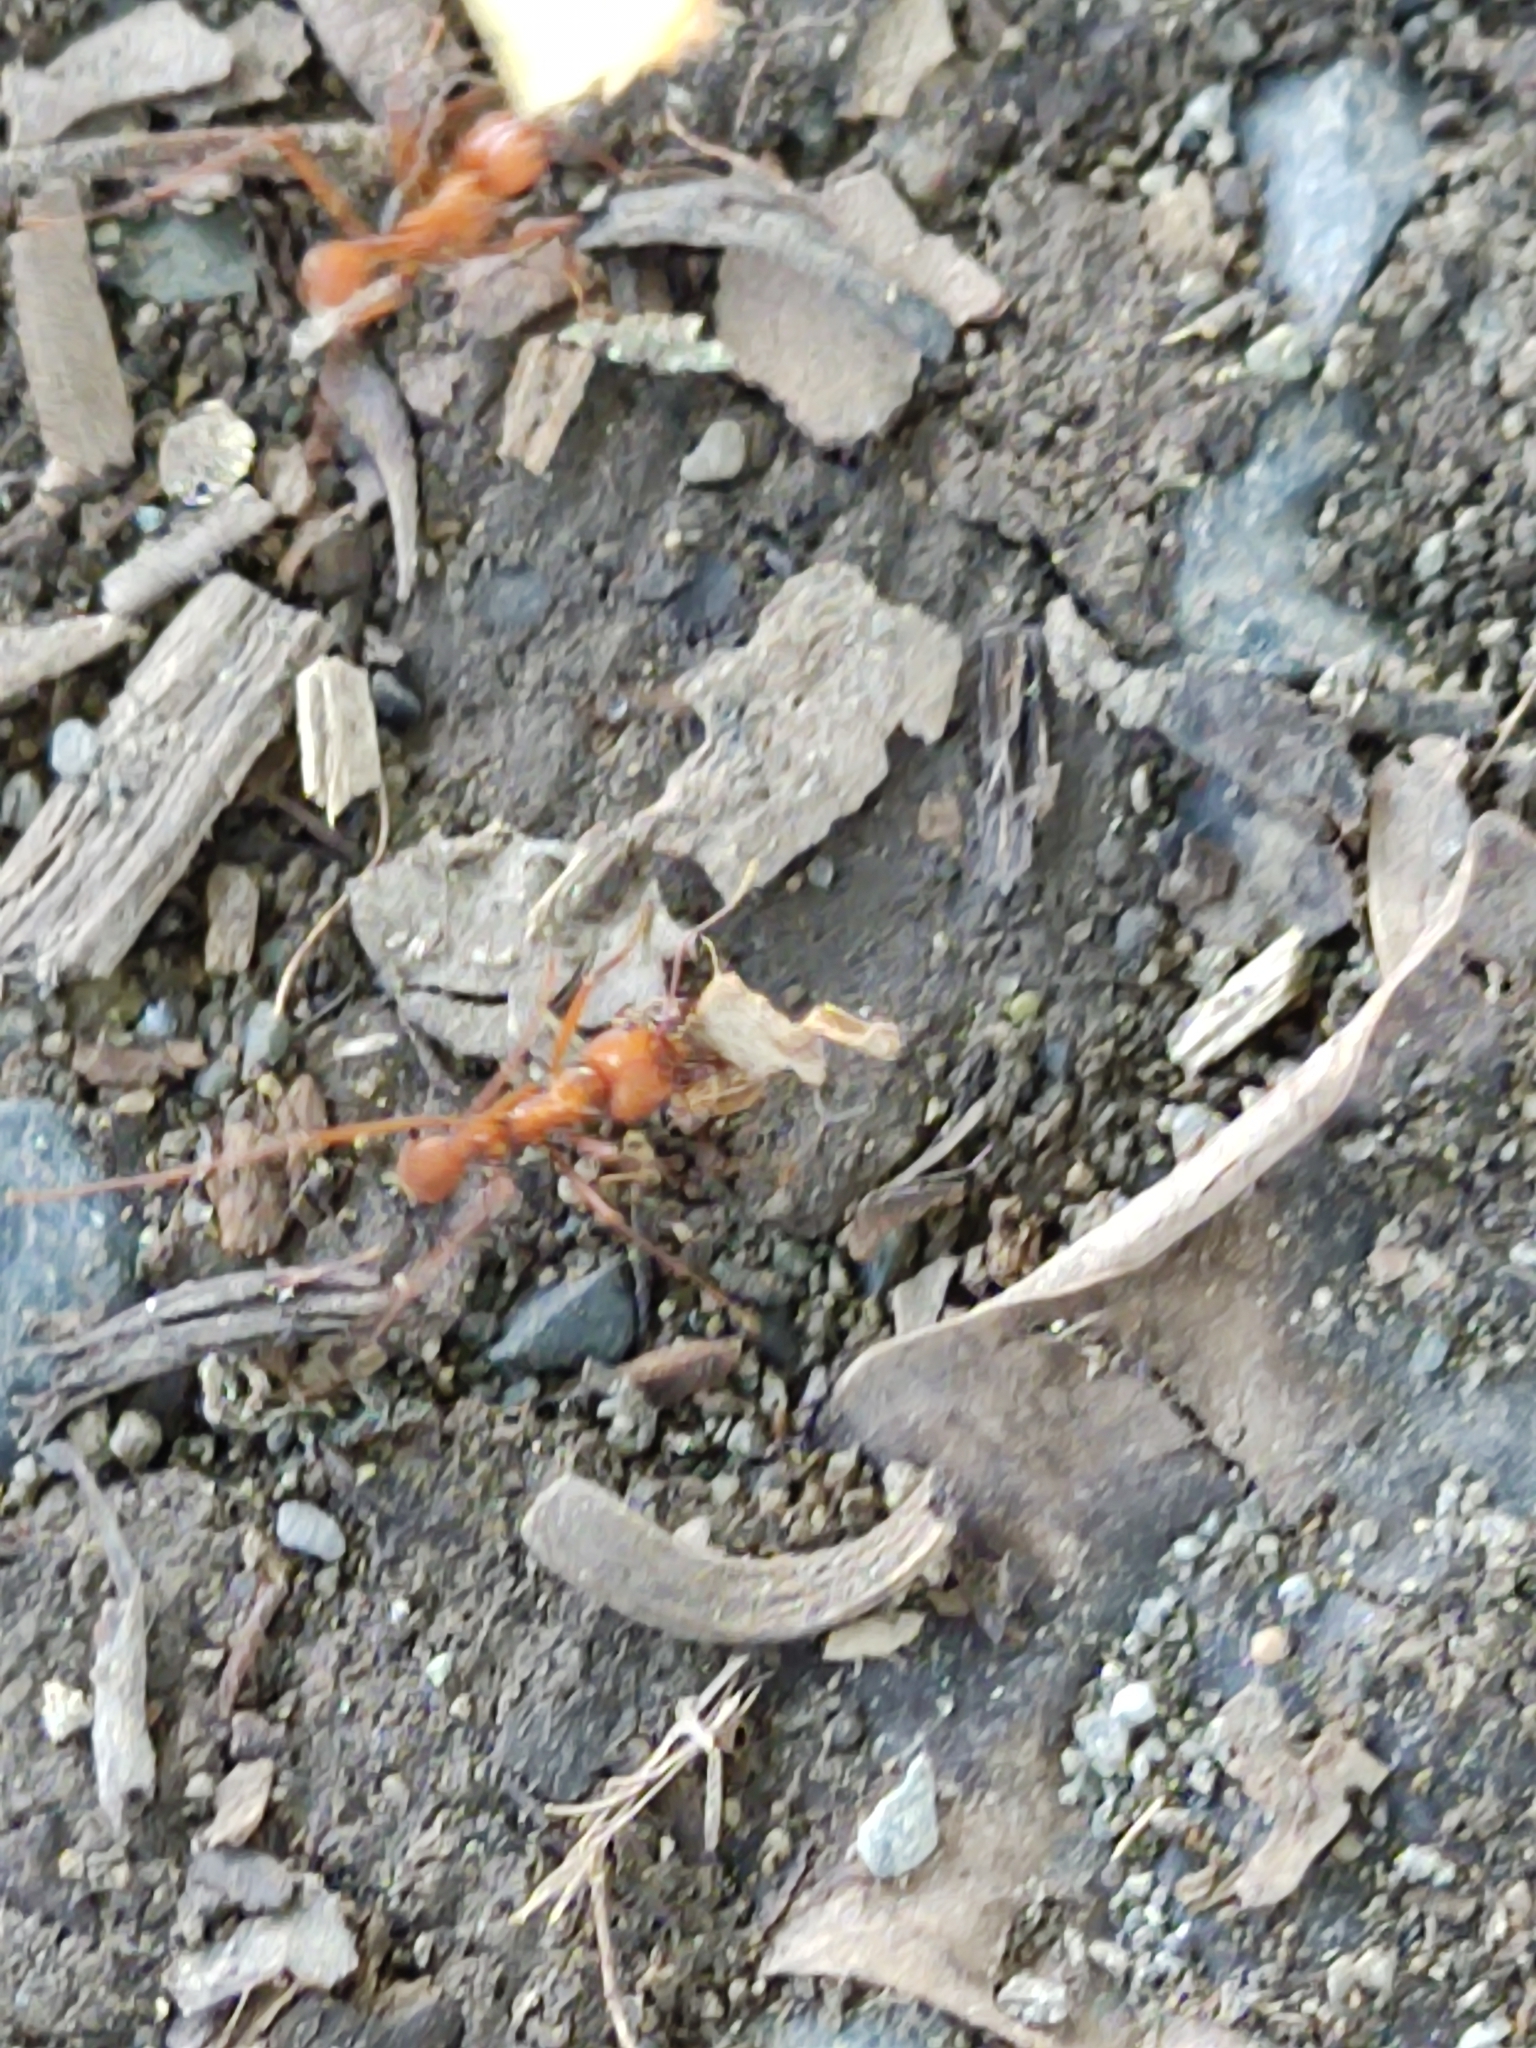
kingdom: Animalia
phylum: Arthropoda
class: Insecta
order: Hymenoptera
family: Formicidae
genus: Atta
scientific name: Atta cephalotes
